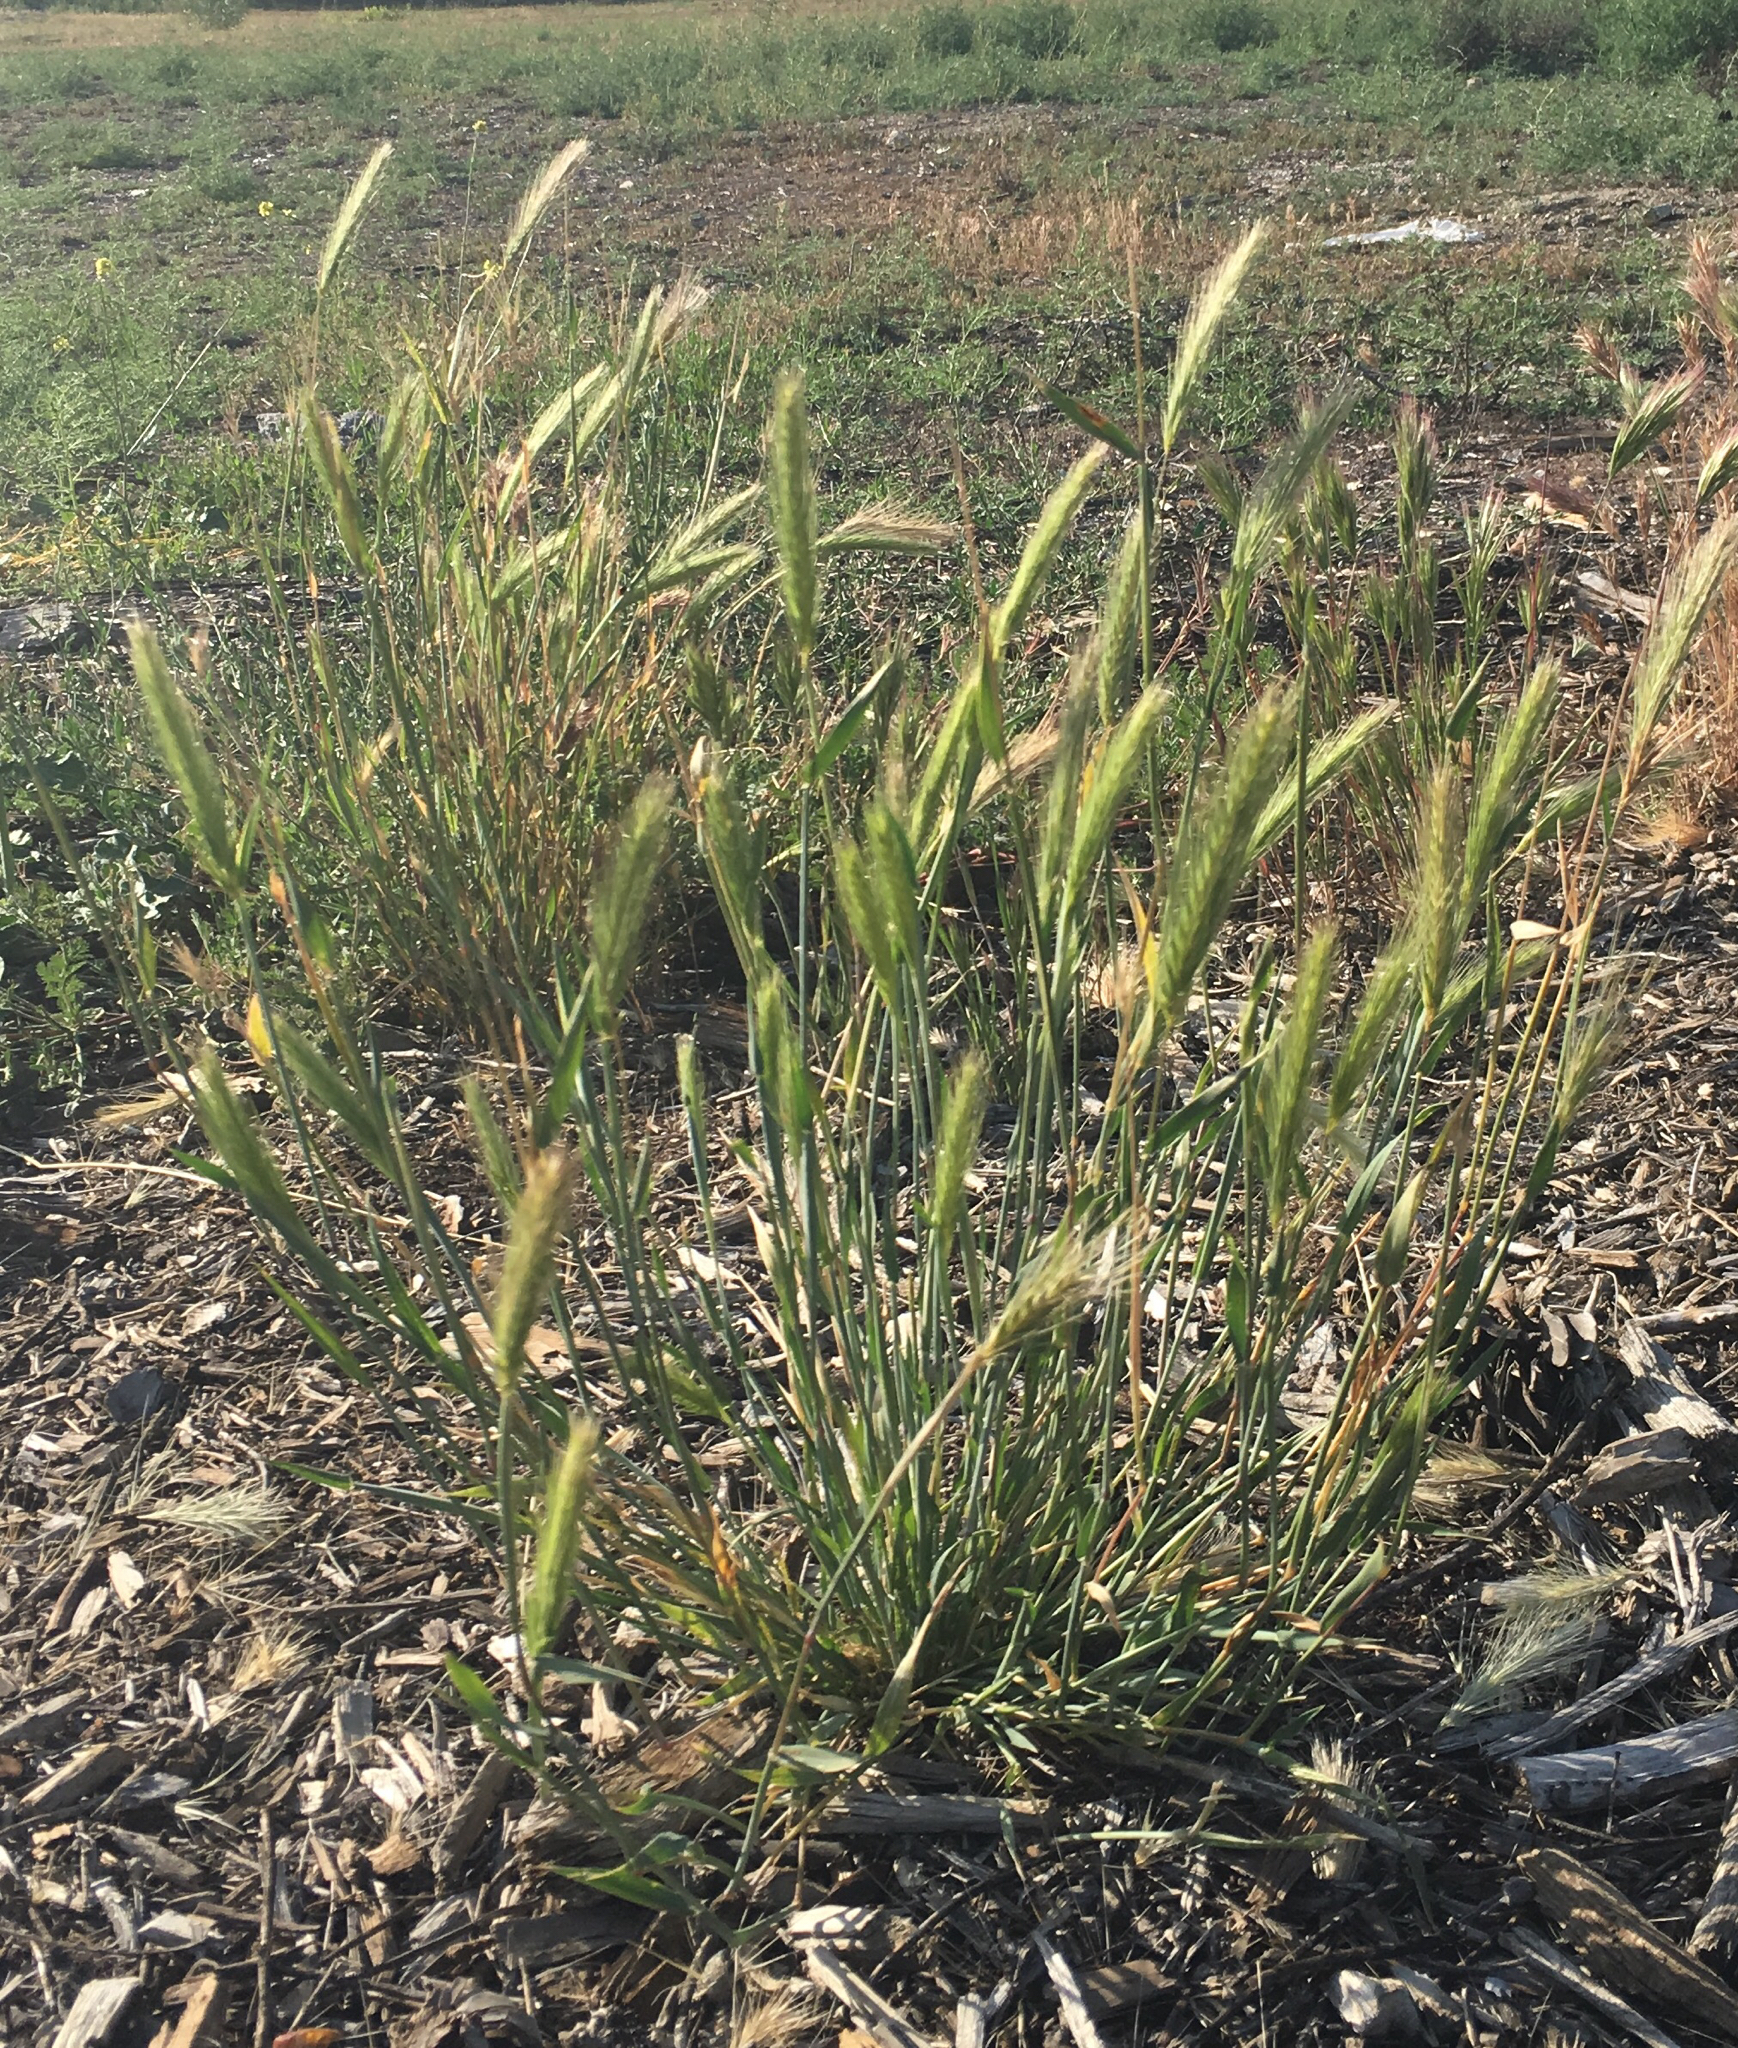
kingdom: Plantae
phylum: Tracheophyta
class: Liliopsida
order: Poales
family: Poaceae
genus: Hordeum
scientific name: Hordeum murinum
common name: Wall barley
